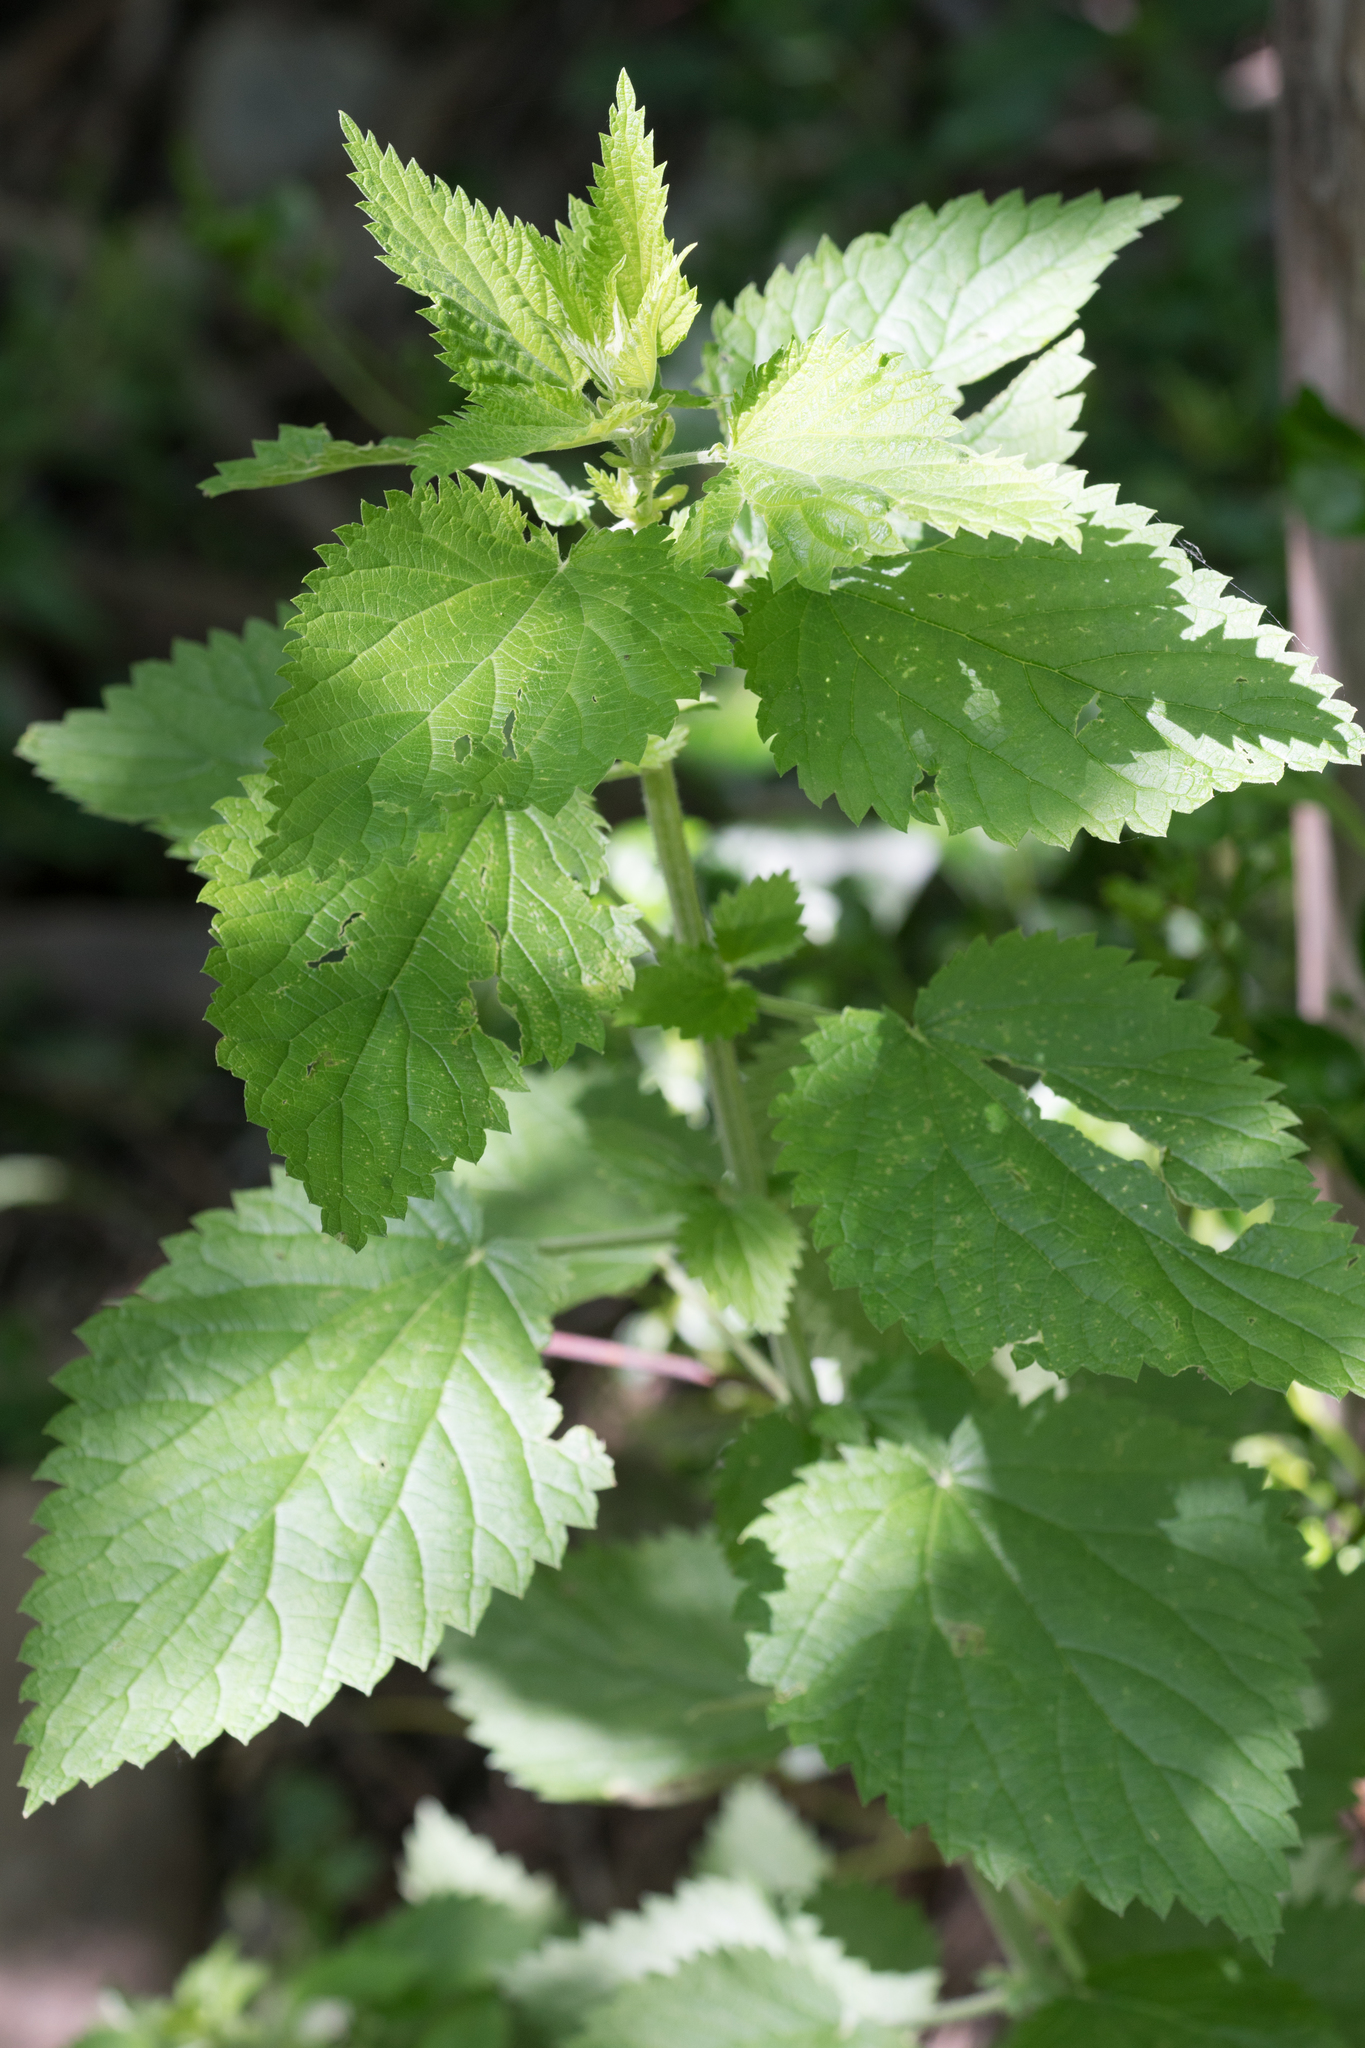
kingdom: Plantae
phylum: Tracheophyta
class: Magnoliopsida
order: Rosales
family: Urticaceae
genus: Urtica
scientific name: Urtica dioica
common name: Common nettle
